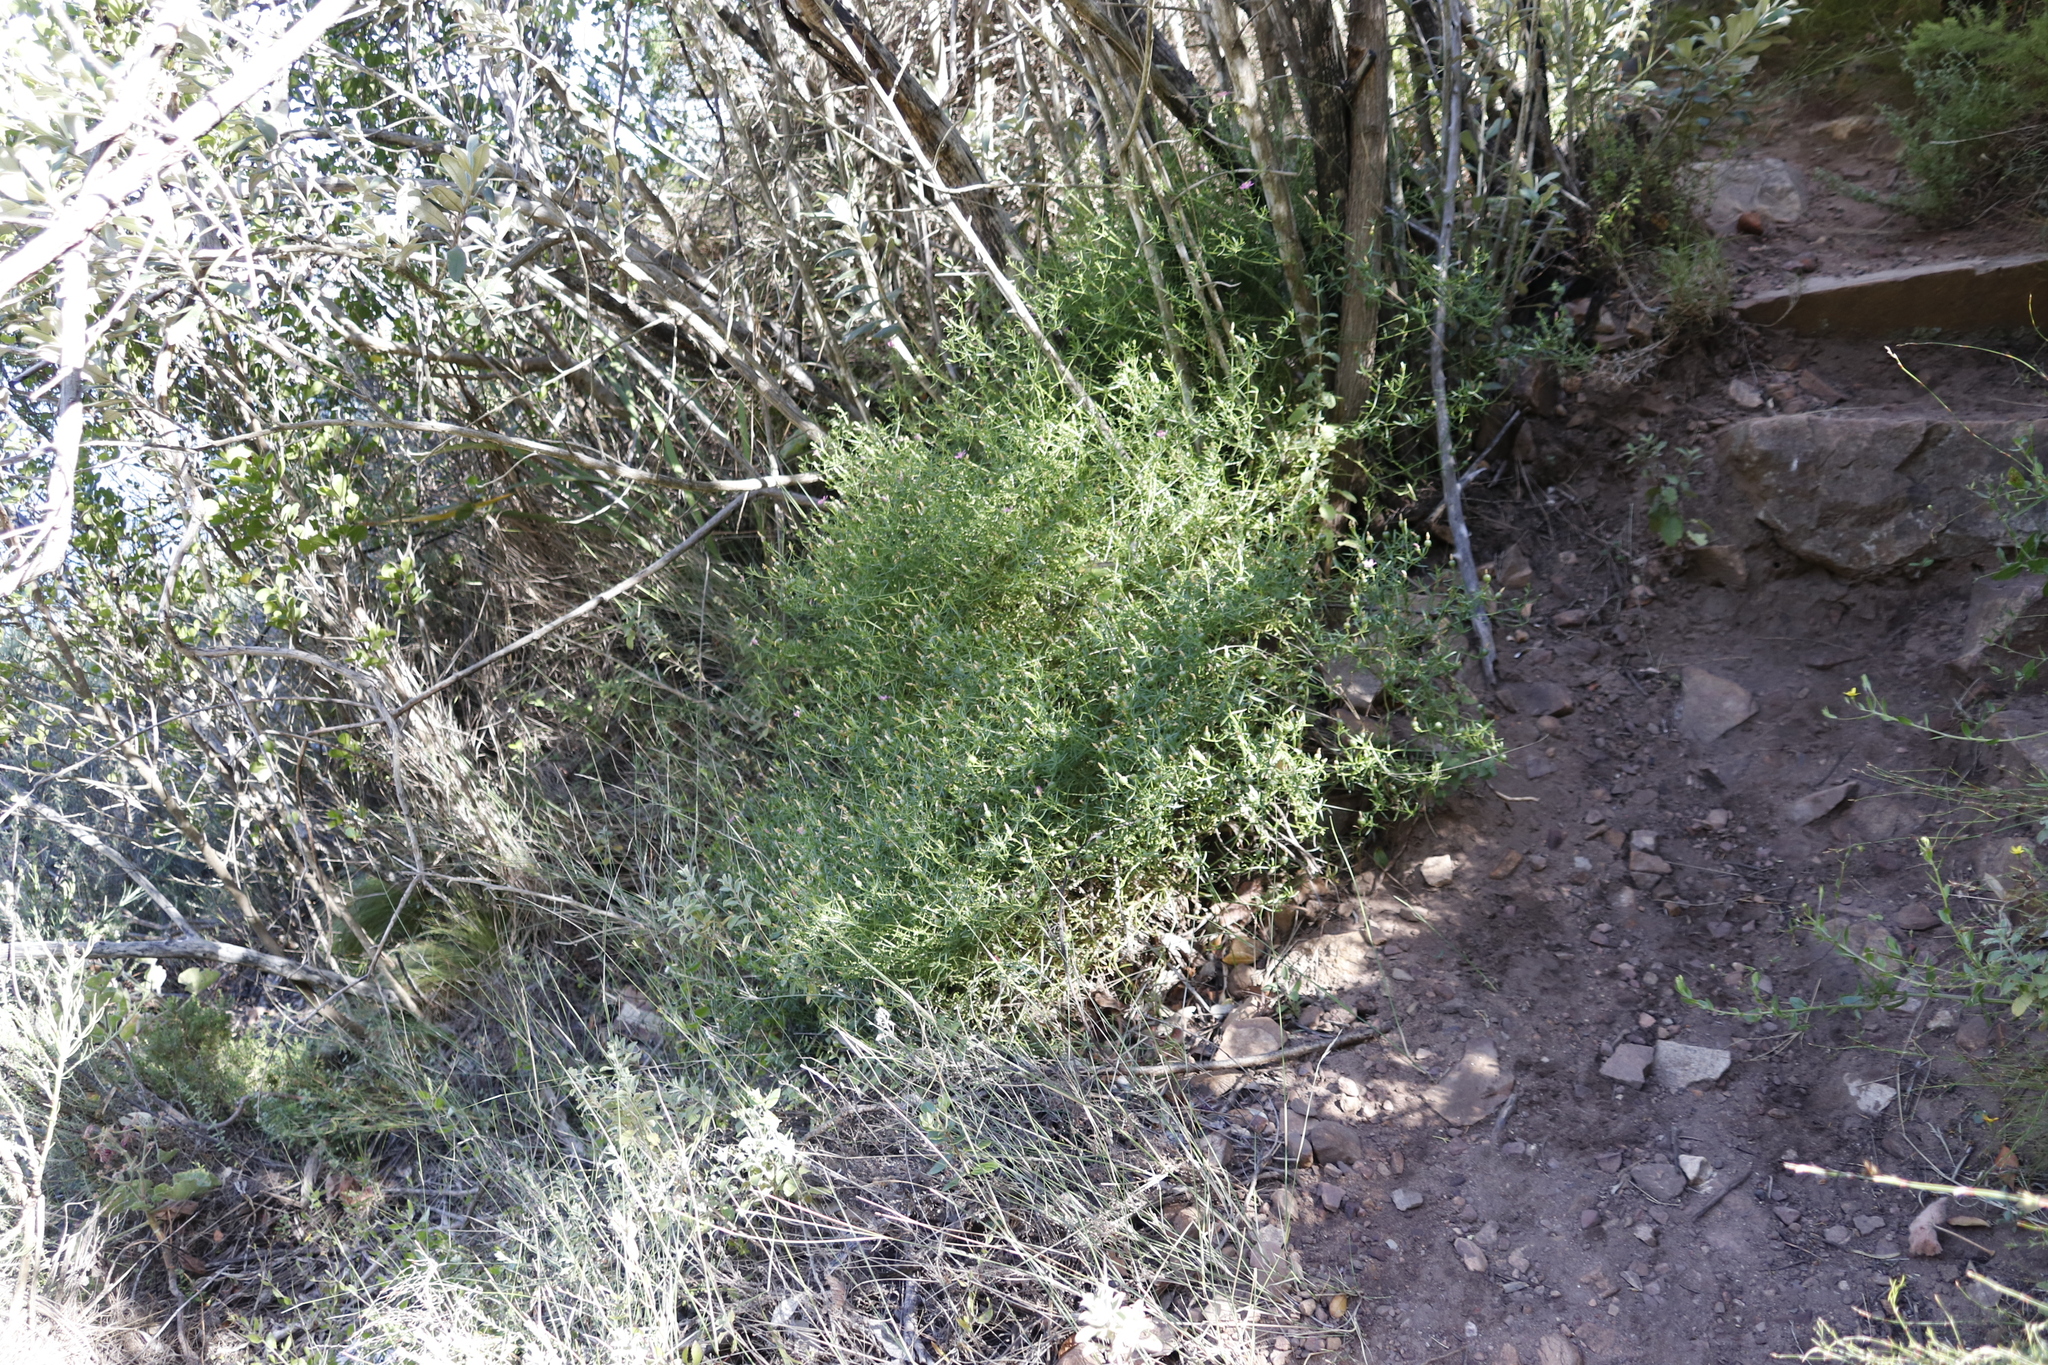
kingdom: Plantae
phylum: Tracheophyta
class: Magnoliopsida
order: Gentianales
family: Gentianaceae
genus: Chironia
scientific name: Chironia baccifera
